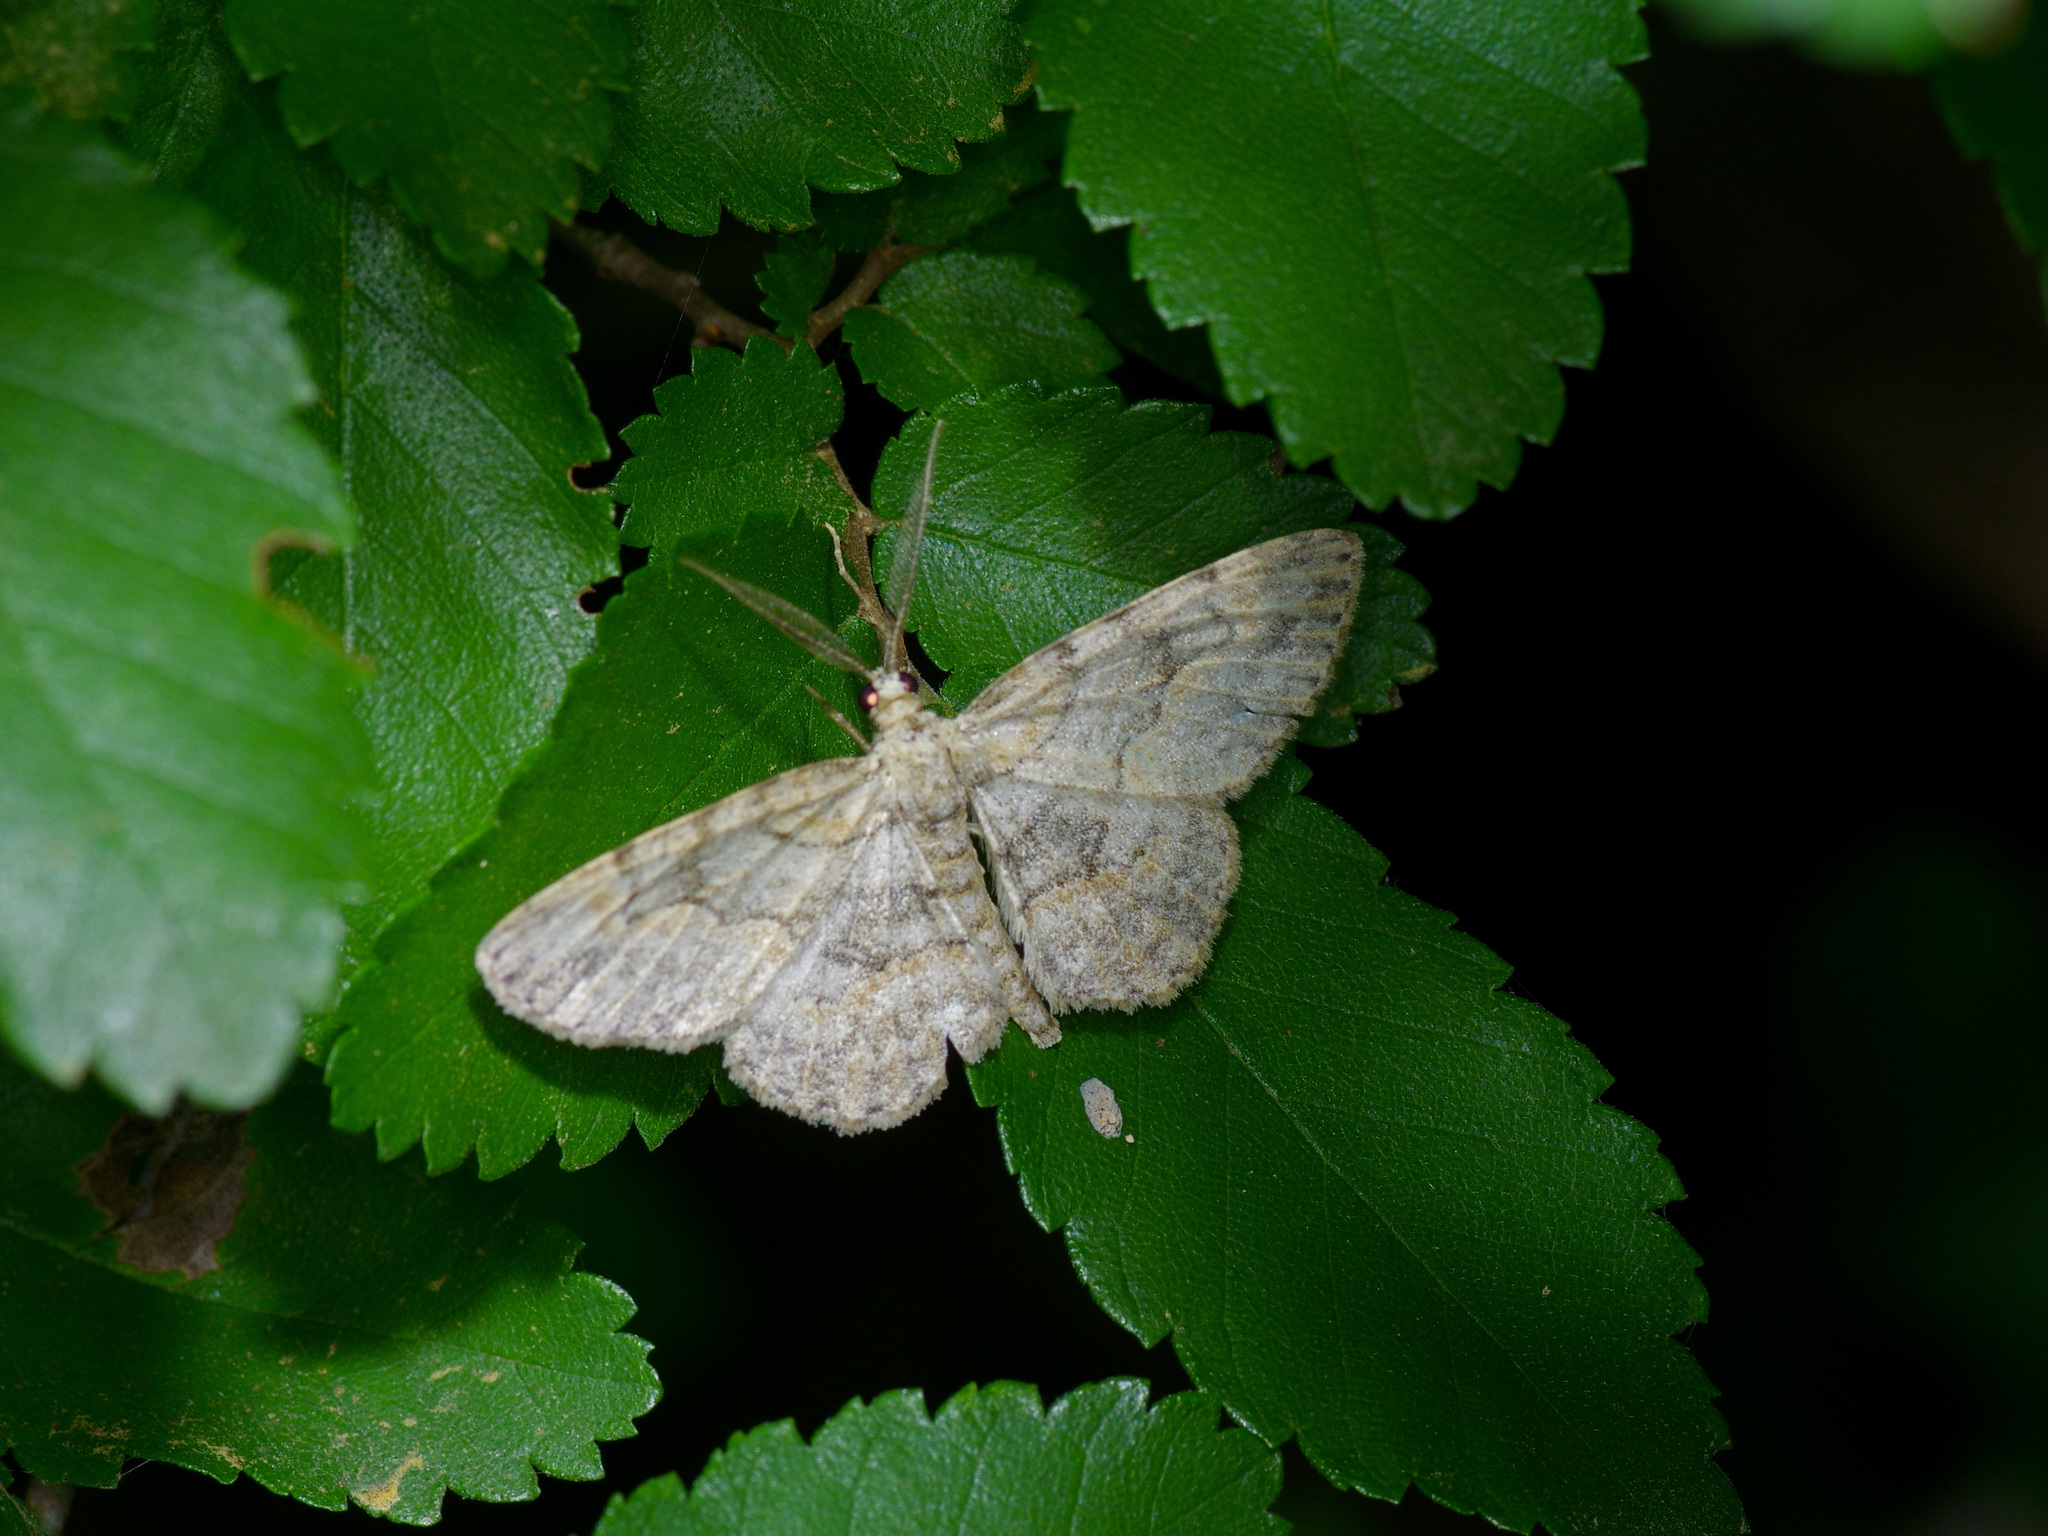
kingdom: Animalia
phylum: Arthropoda
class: Insecta
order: Lepidoptera
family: Geometridae
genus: Iridopsis
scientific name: Iridopsis ephyraria
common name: Pale-winged gray
